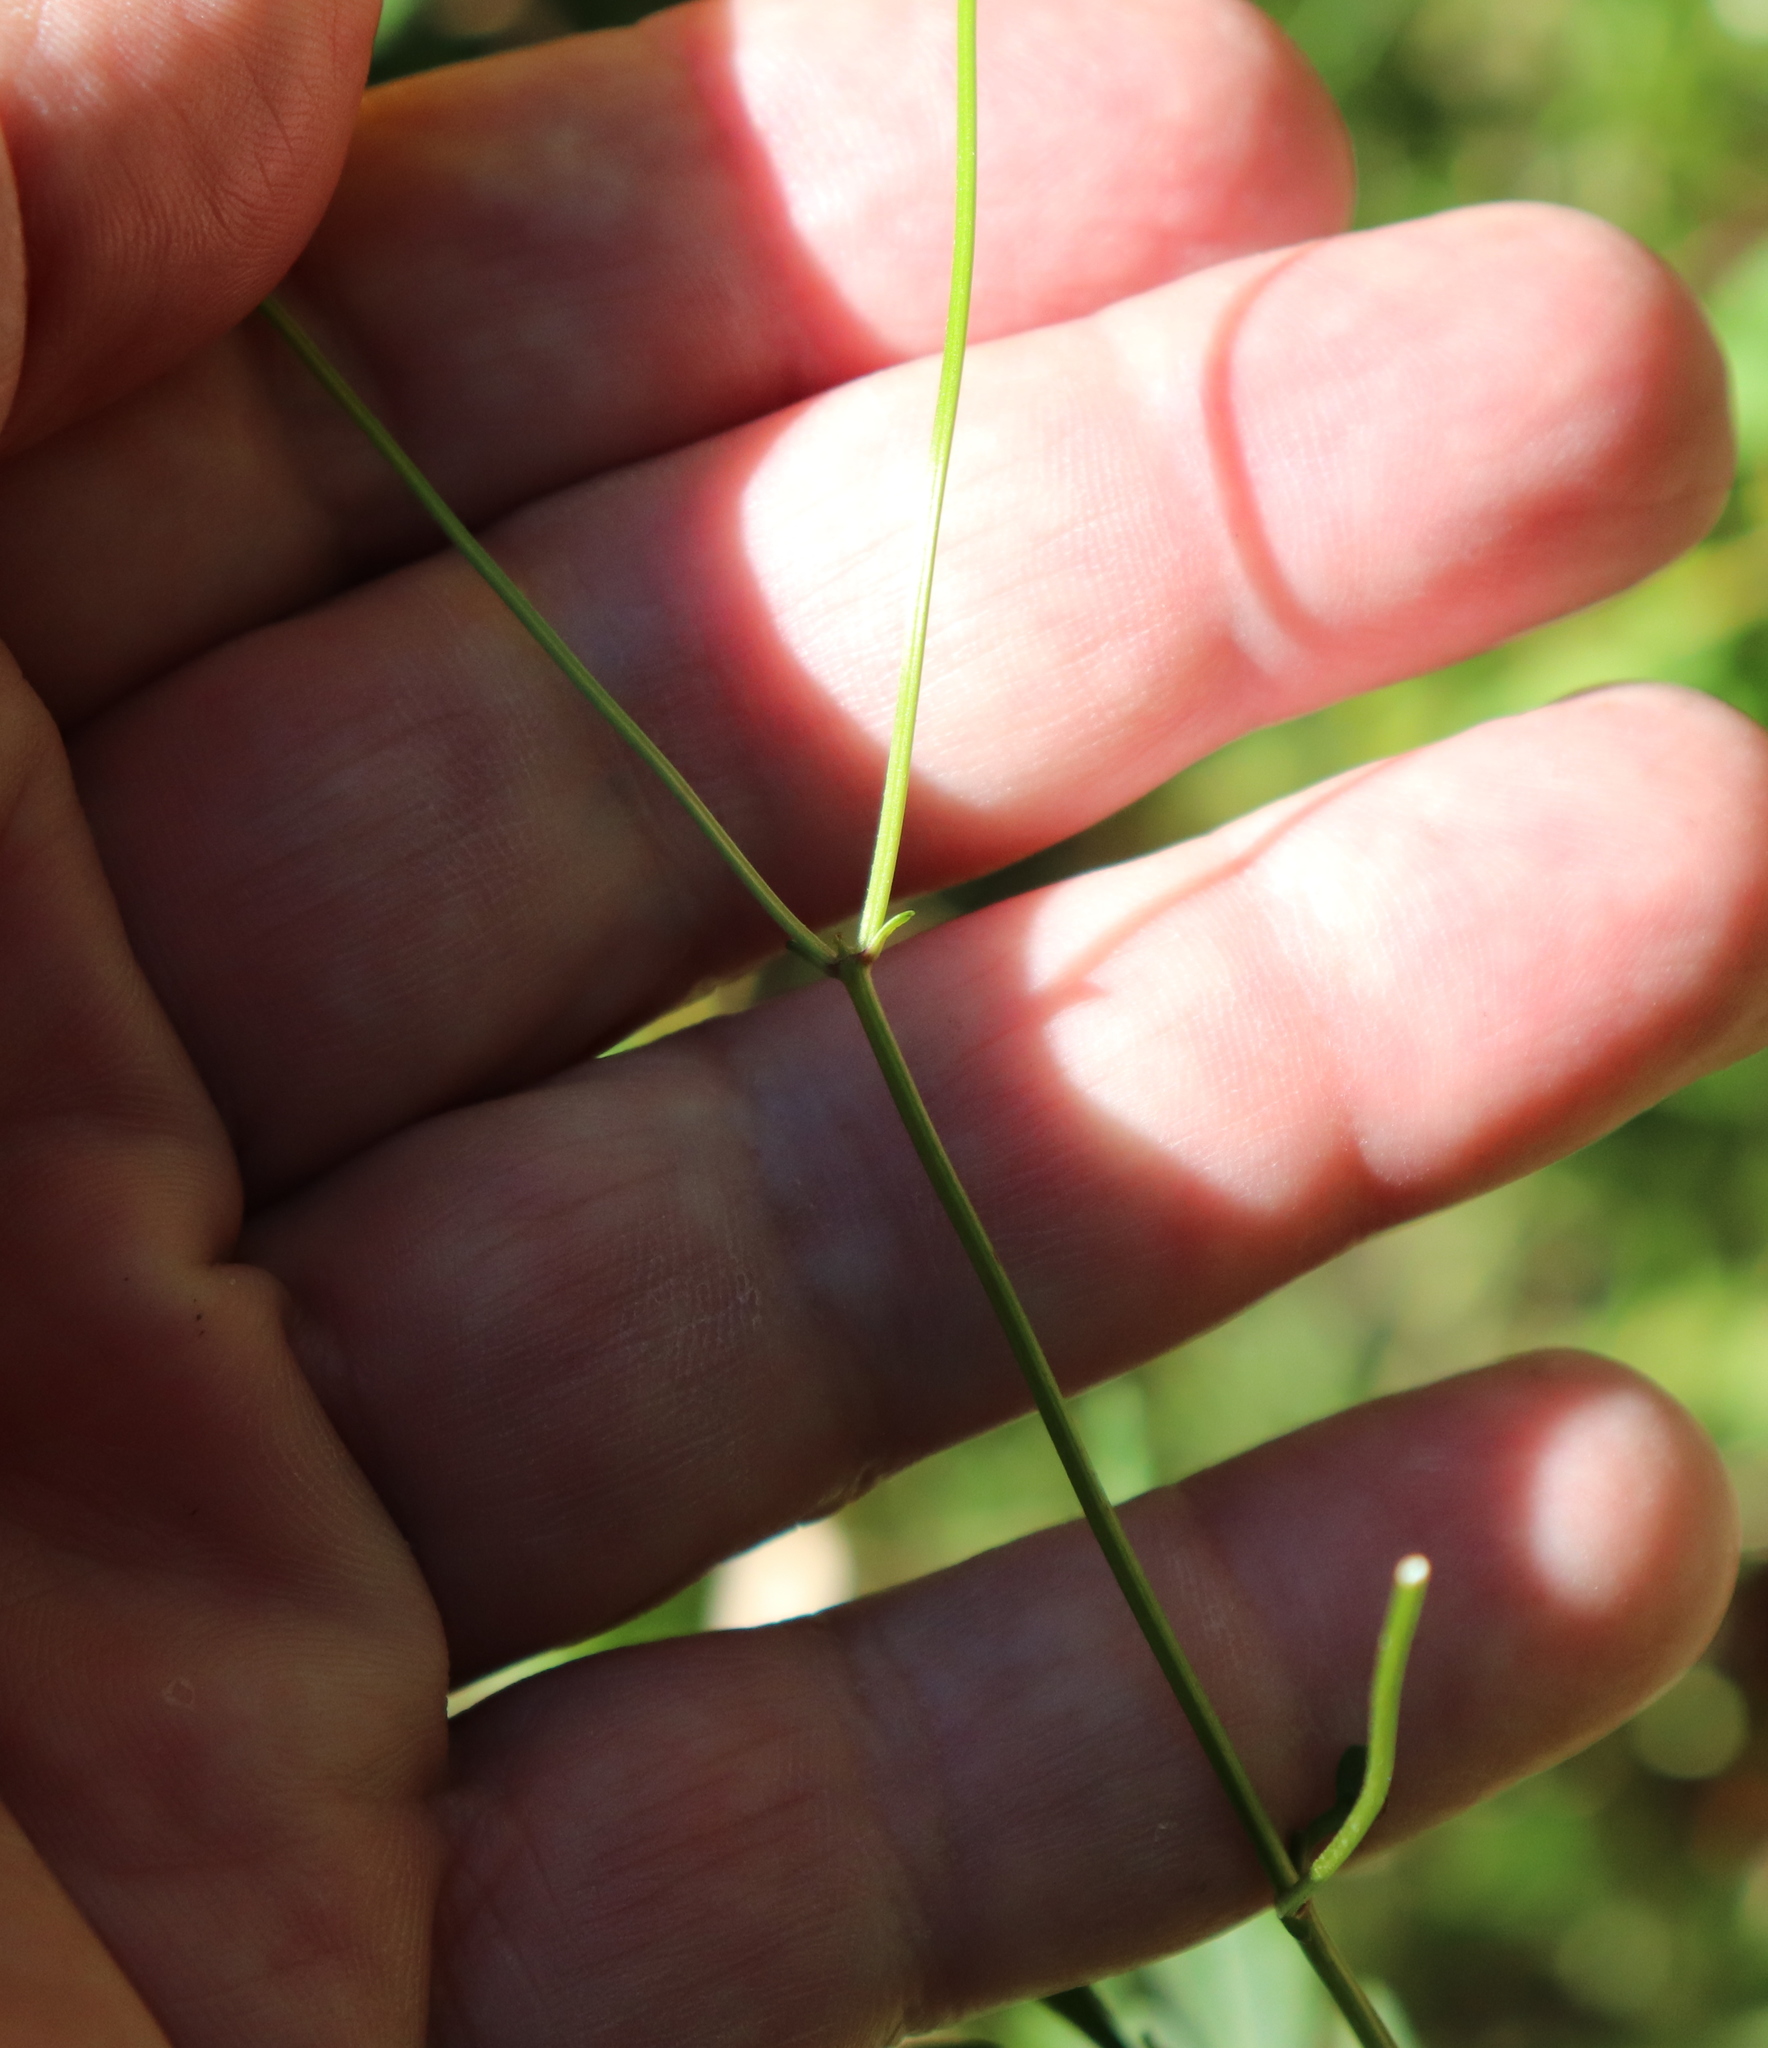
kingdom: Plantae
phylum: Tracheophyta
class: Magnoliopsida
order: Asterales
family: Asteraceae
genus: Bidens
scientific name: Bidens mitis
